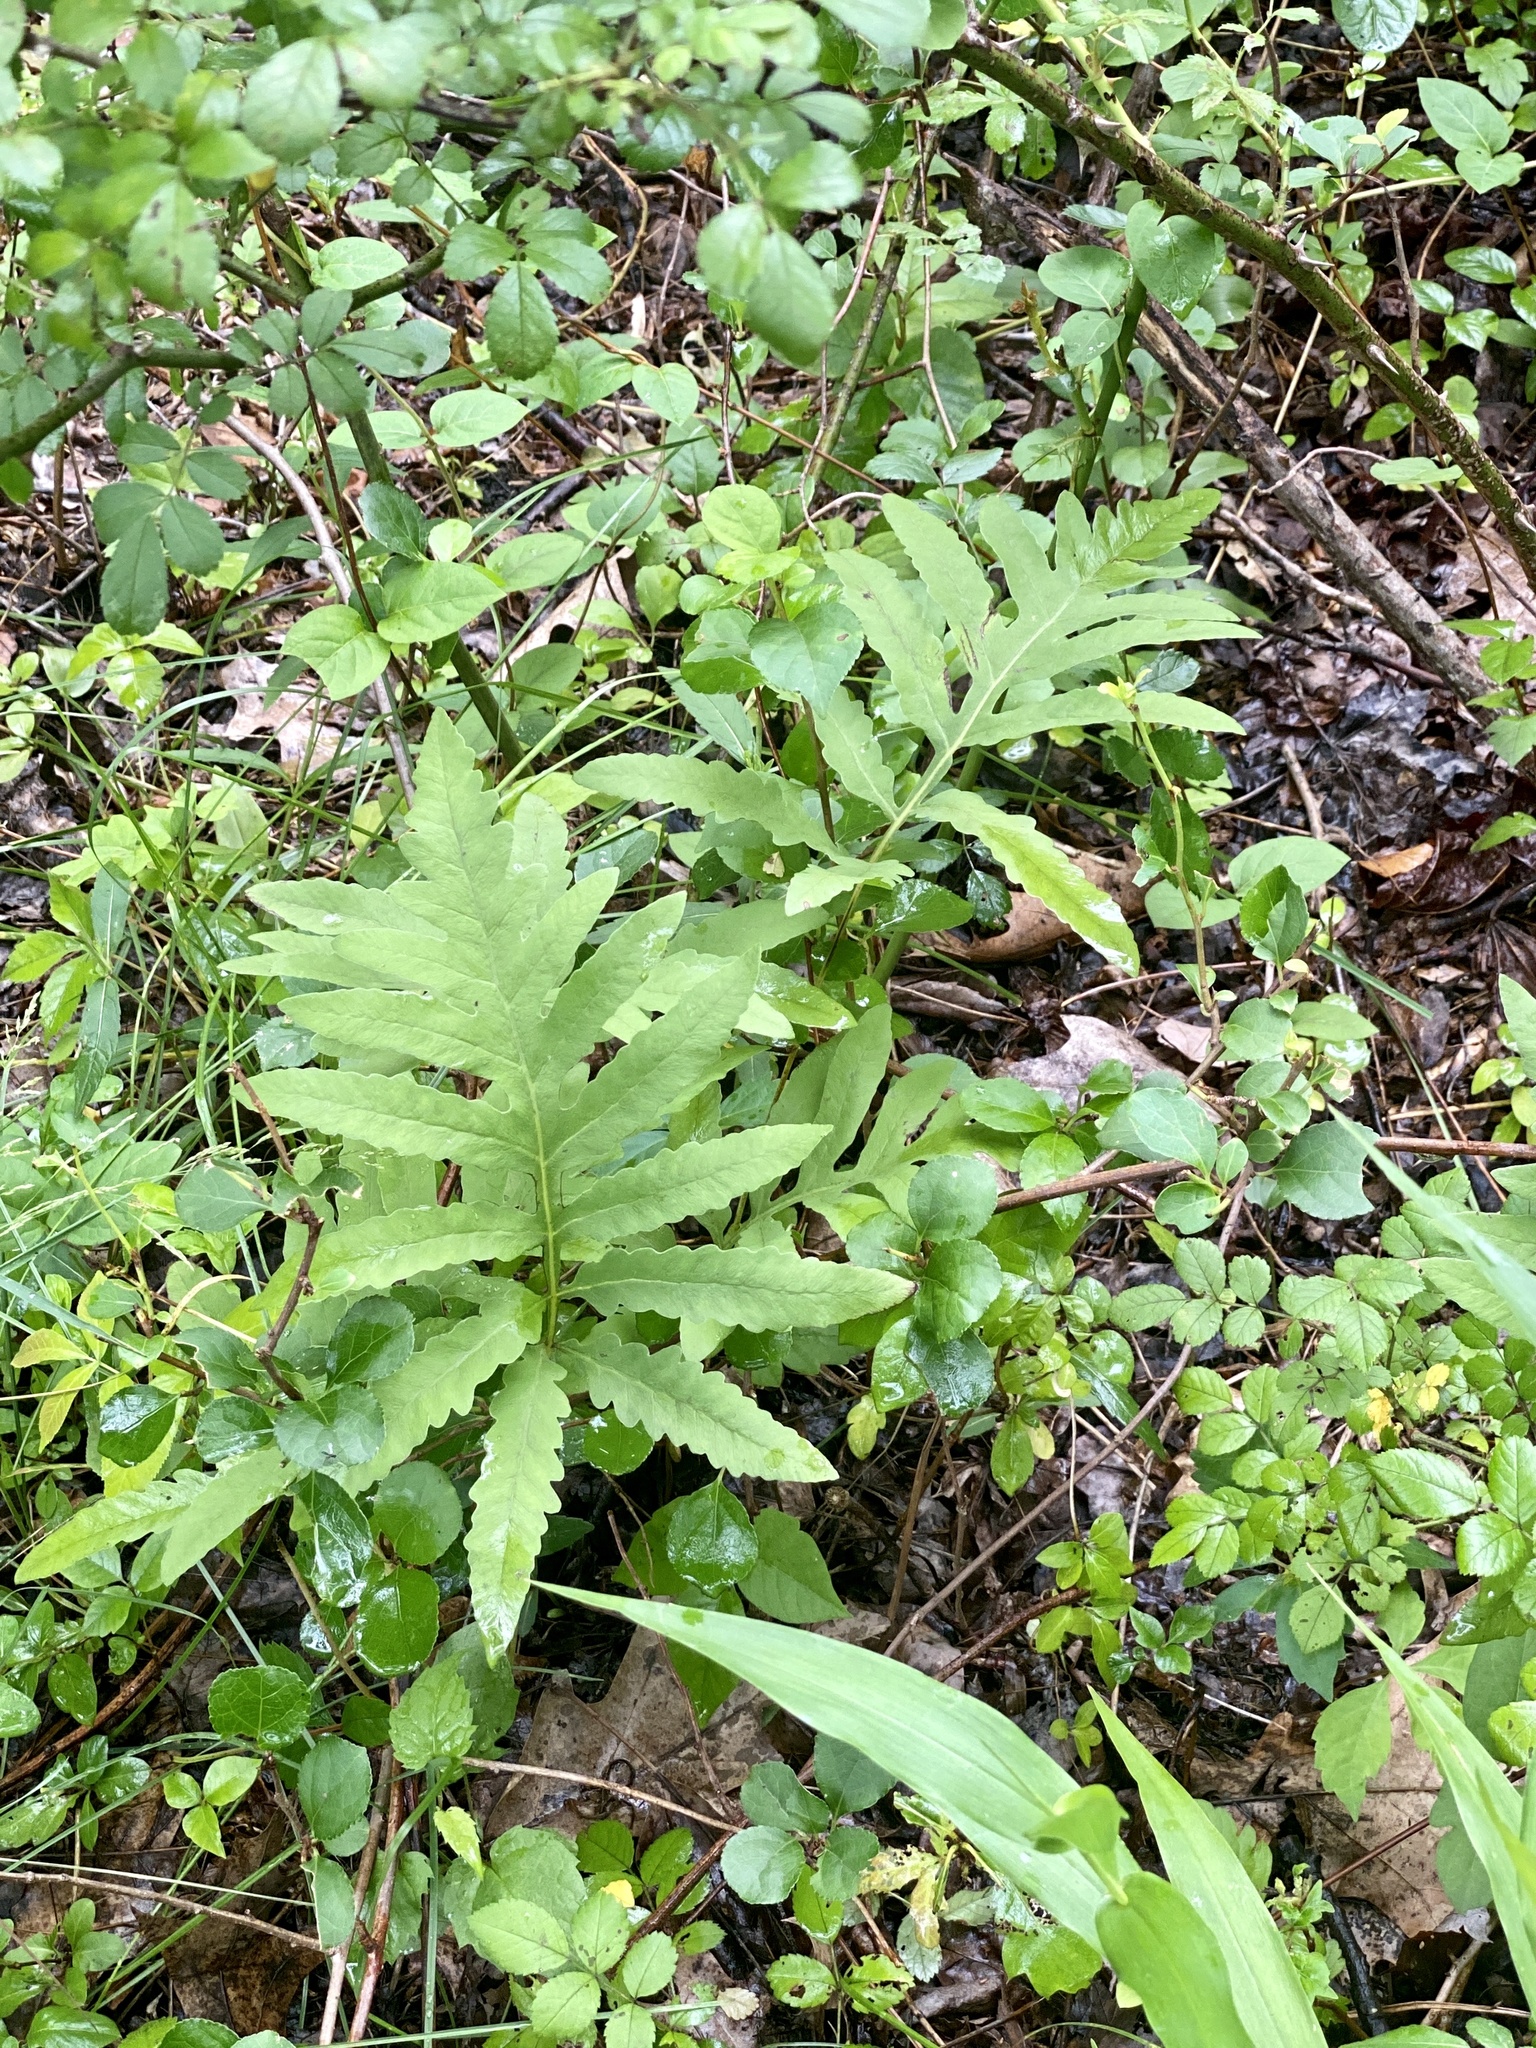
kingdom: Plantae
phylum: Tracheophyta
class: Polypodiopsida
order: Polypodiales
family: Onocleaceae
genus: Onoclea
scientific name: Onoclea sensibilis
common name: Sensitive fern
